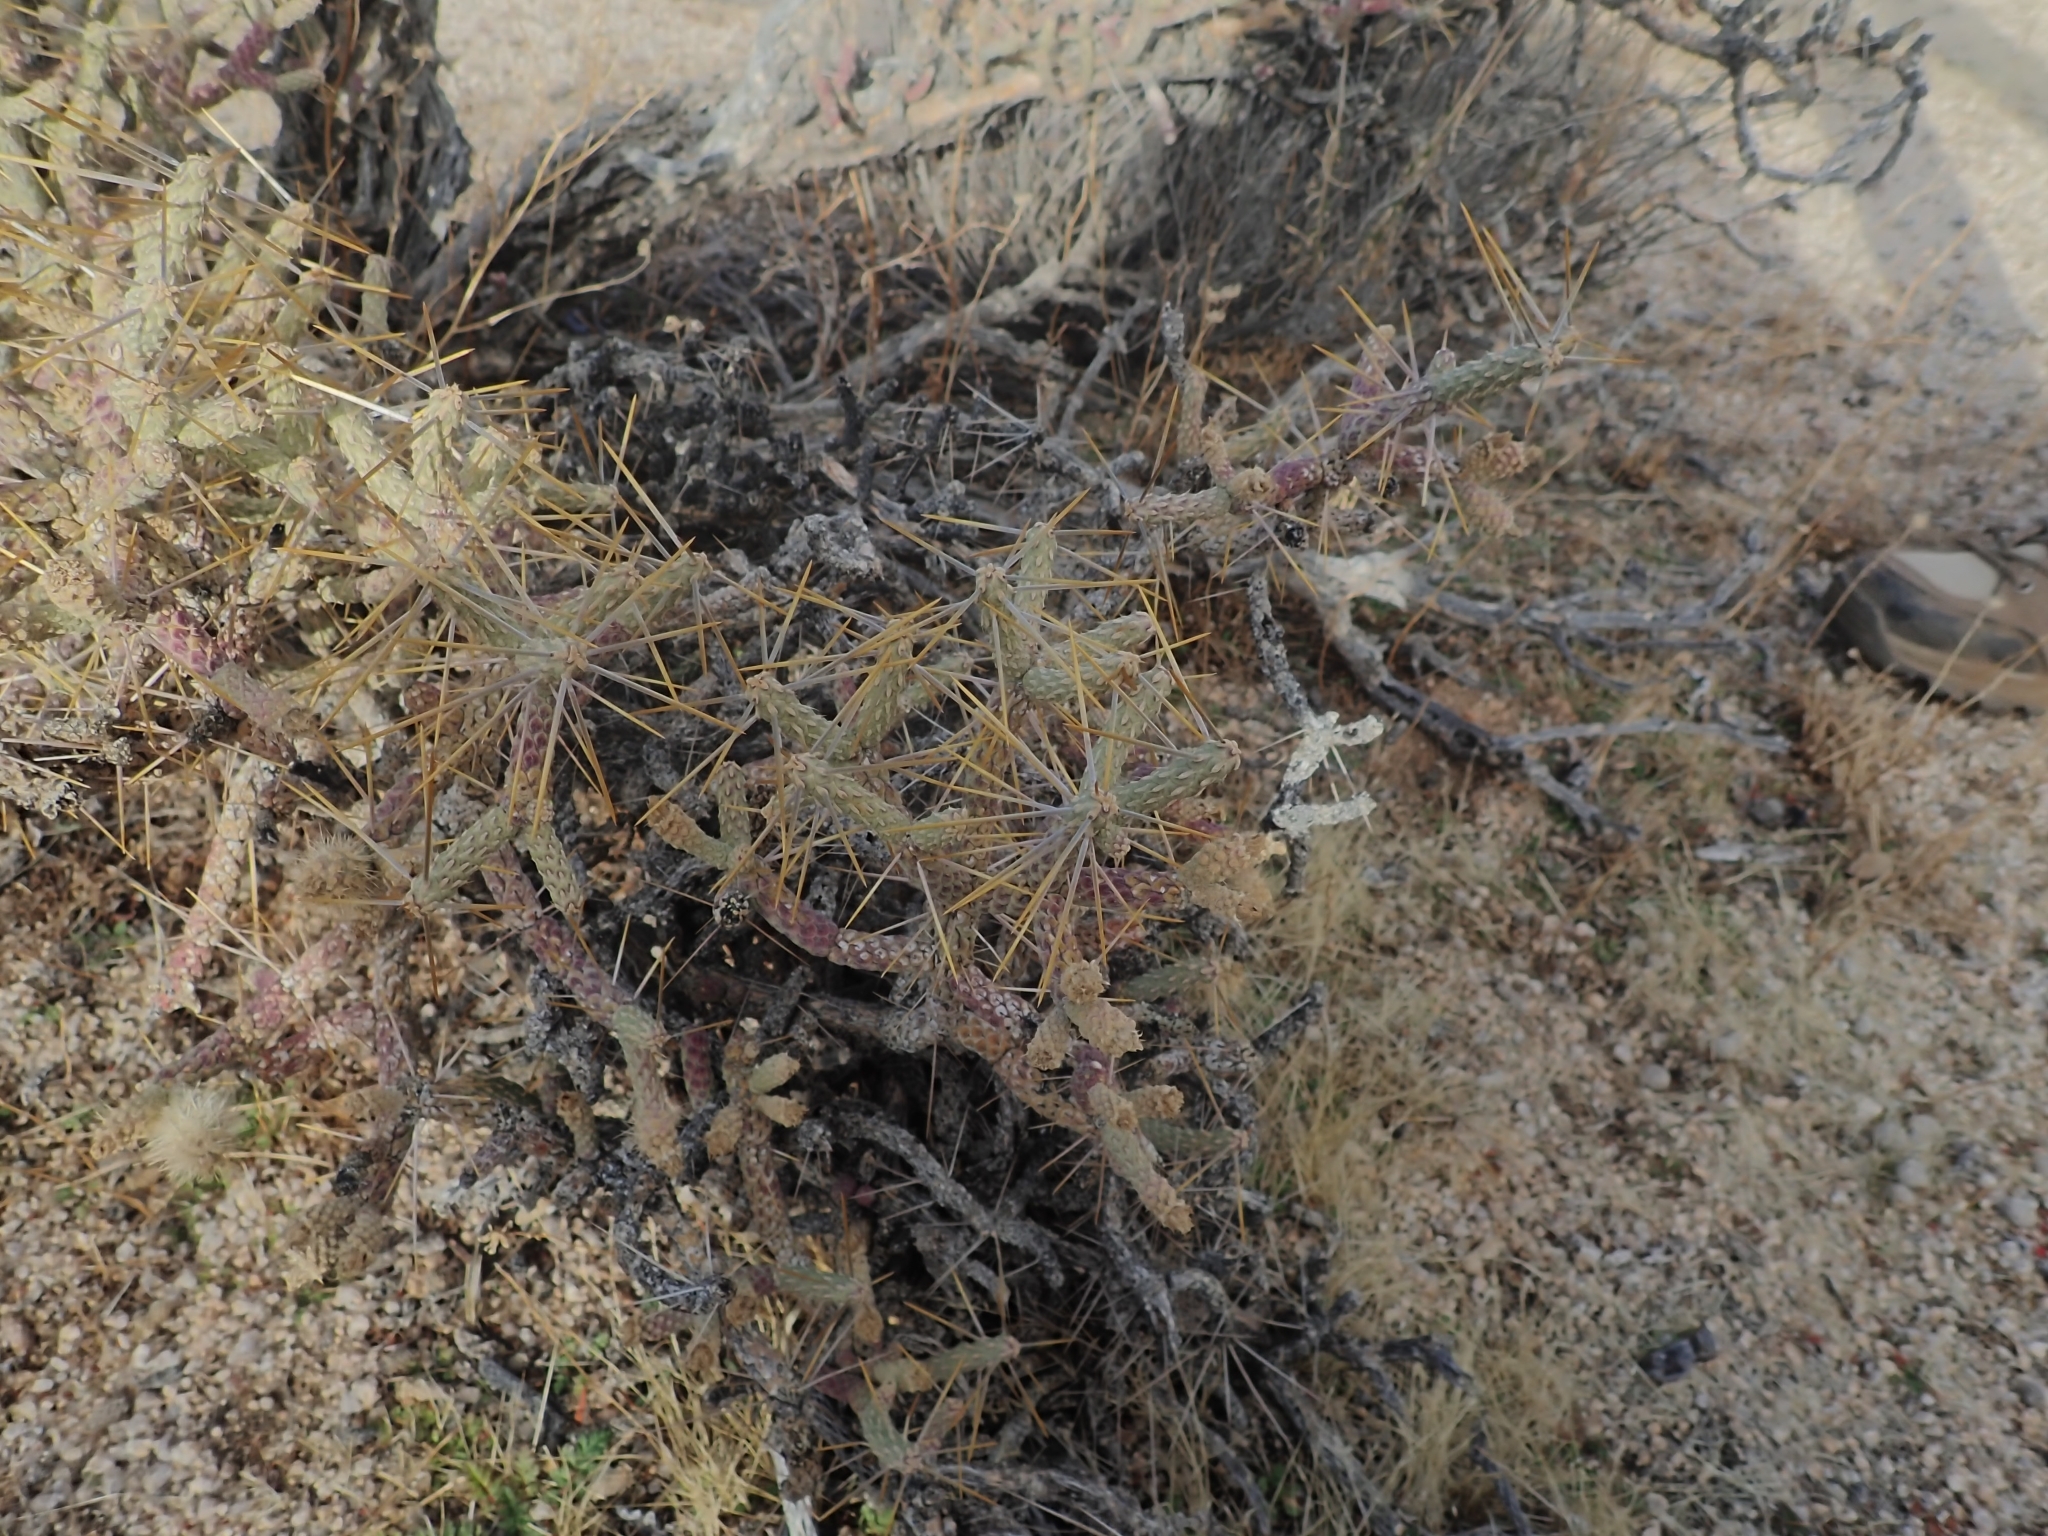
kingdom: Plantae
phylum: Tracheophyta
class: Magnoliopsida
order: Caryophyllales
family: Cactaceae
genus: Cylindropuntia
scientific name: Cylindropuntia ramosissima
